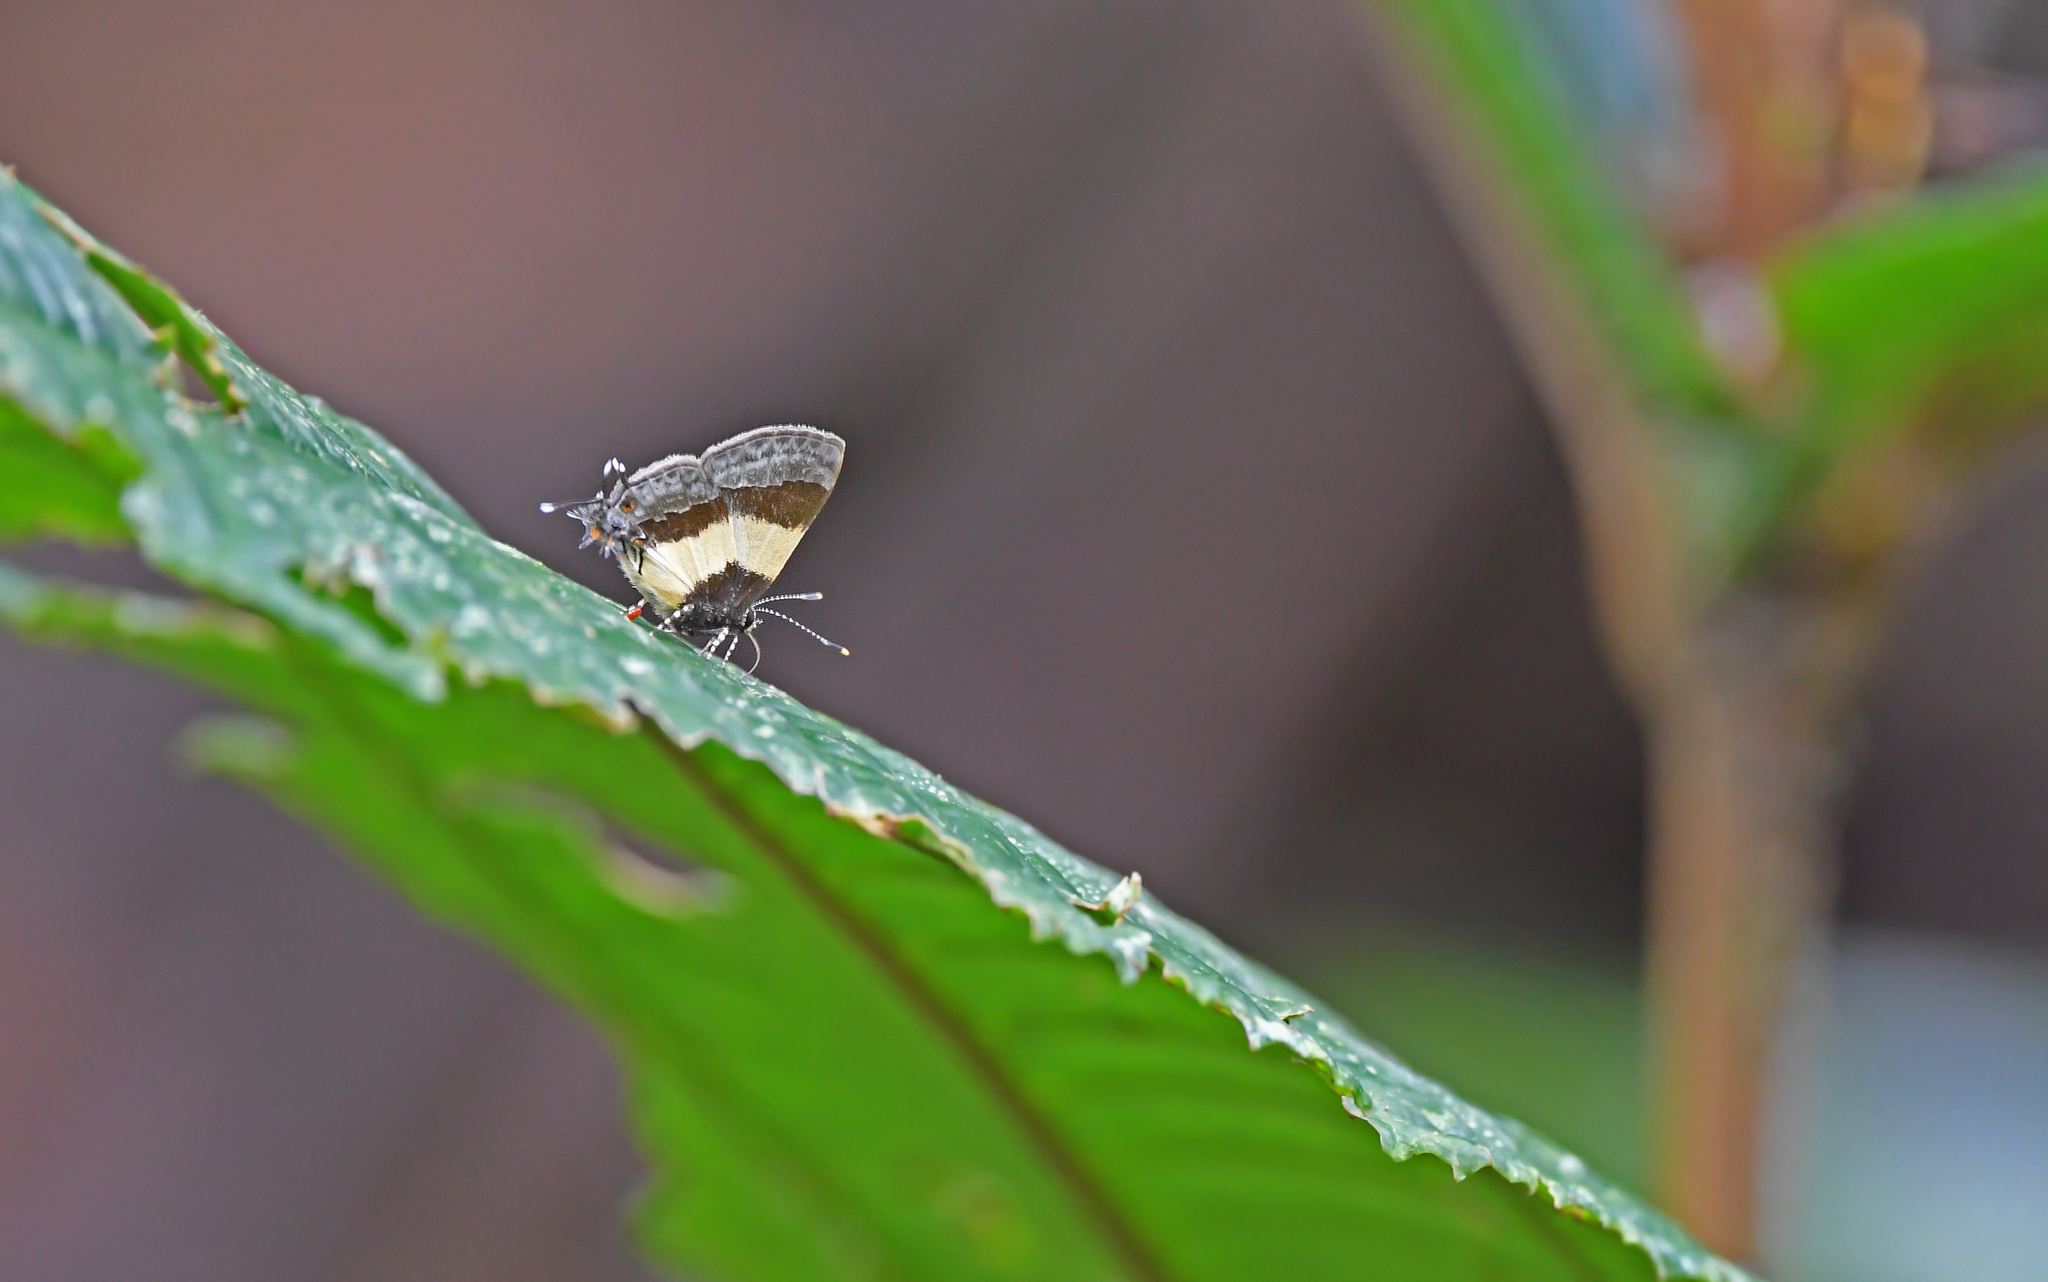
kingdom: Animalia
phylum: Arthropoda
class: Insecta
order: Lepidoptera
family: Lycaenidae
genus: Thecla
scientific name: Thecla taminella
